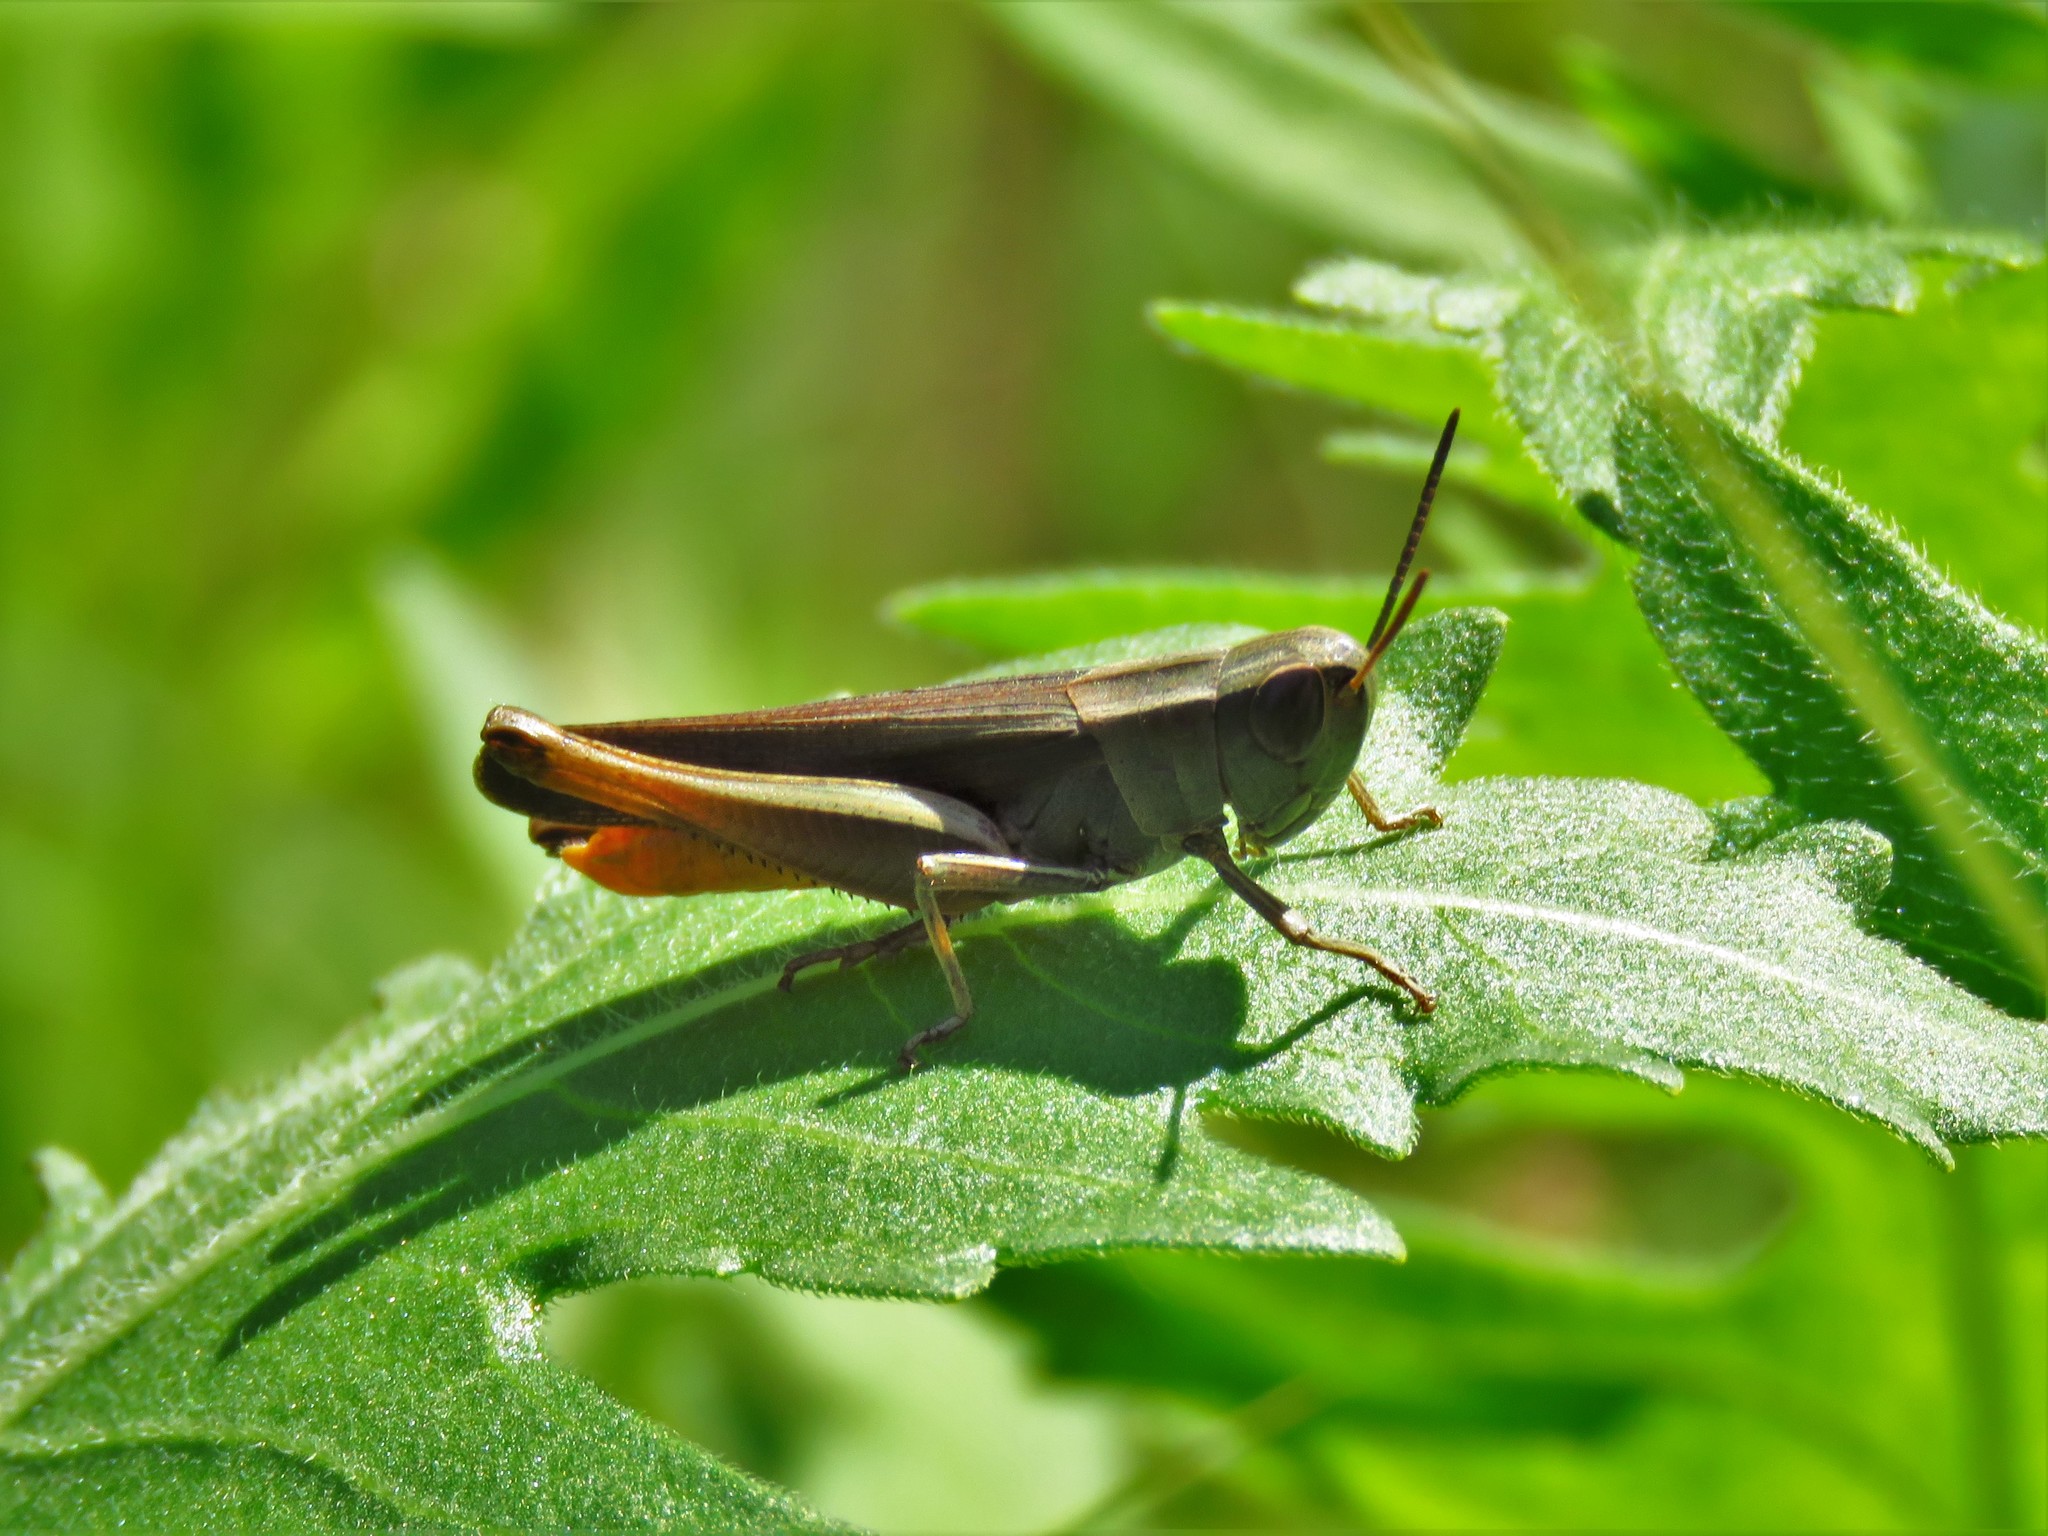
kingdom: Animalia
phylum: Arthropoda
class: Insecta
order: Orthoptera
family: Acrididae
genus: Amblytropidia
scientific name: Amblytropidia mysteca
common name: Brown winter grasshopper
